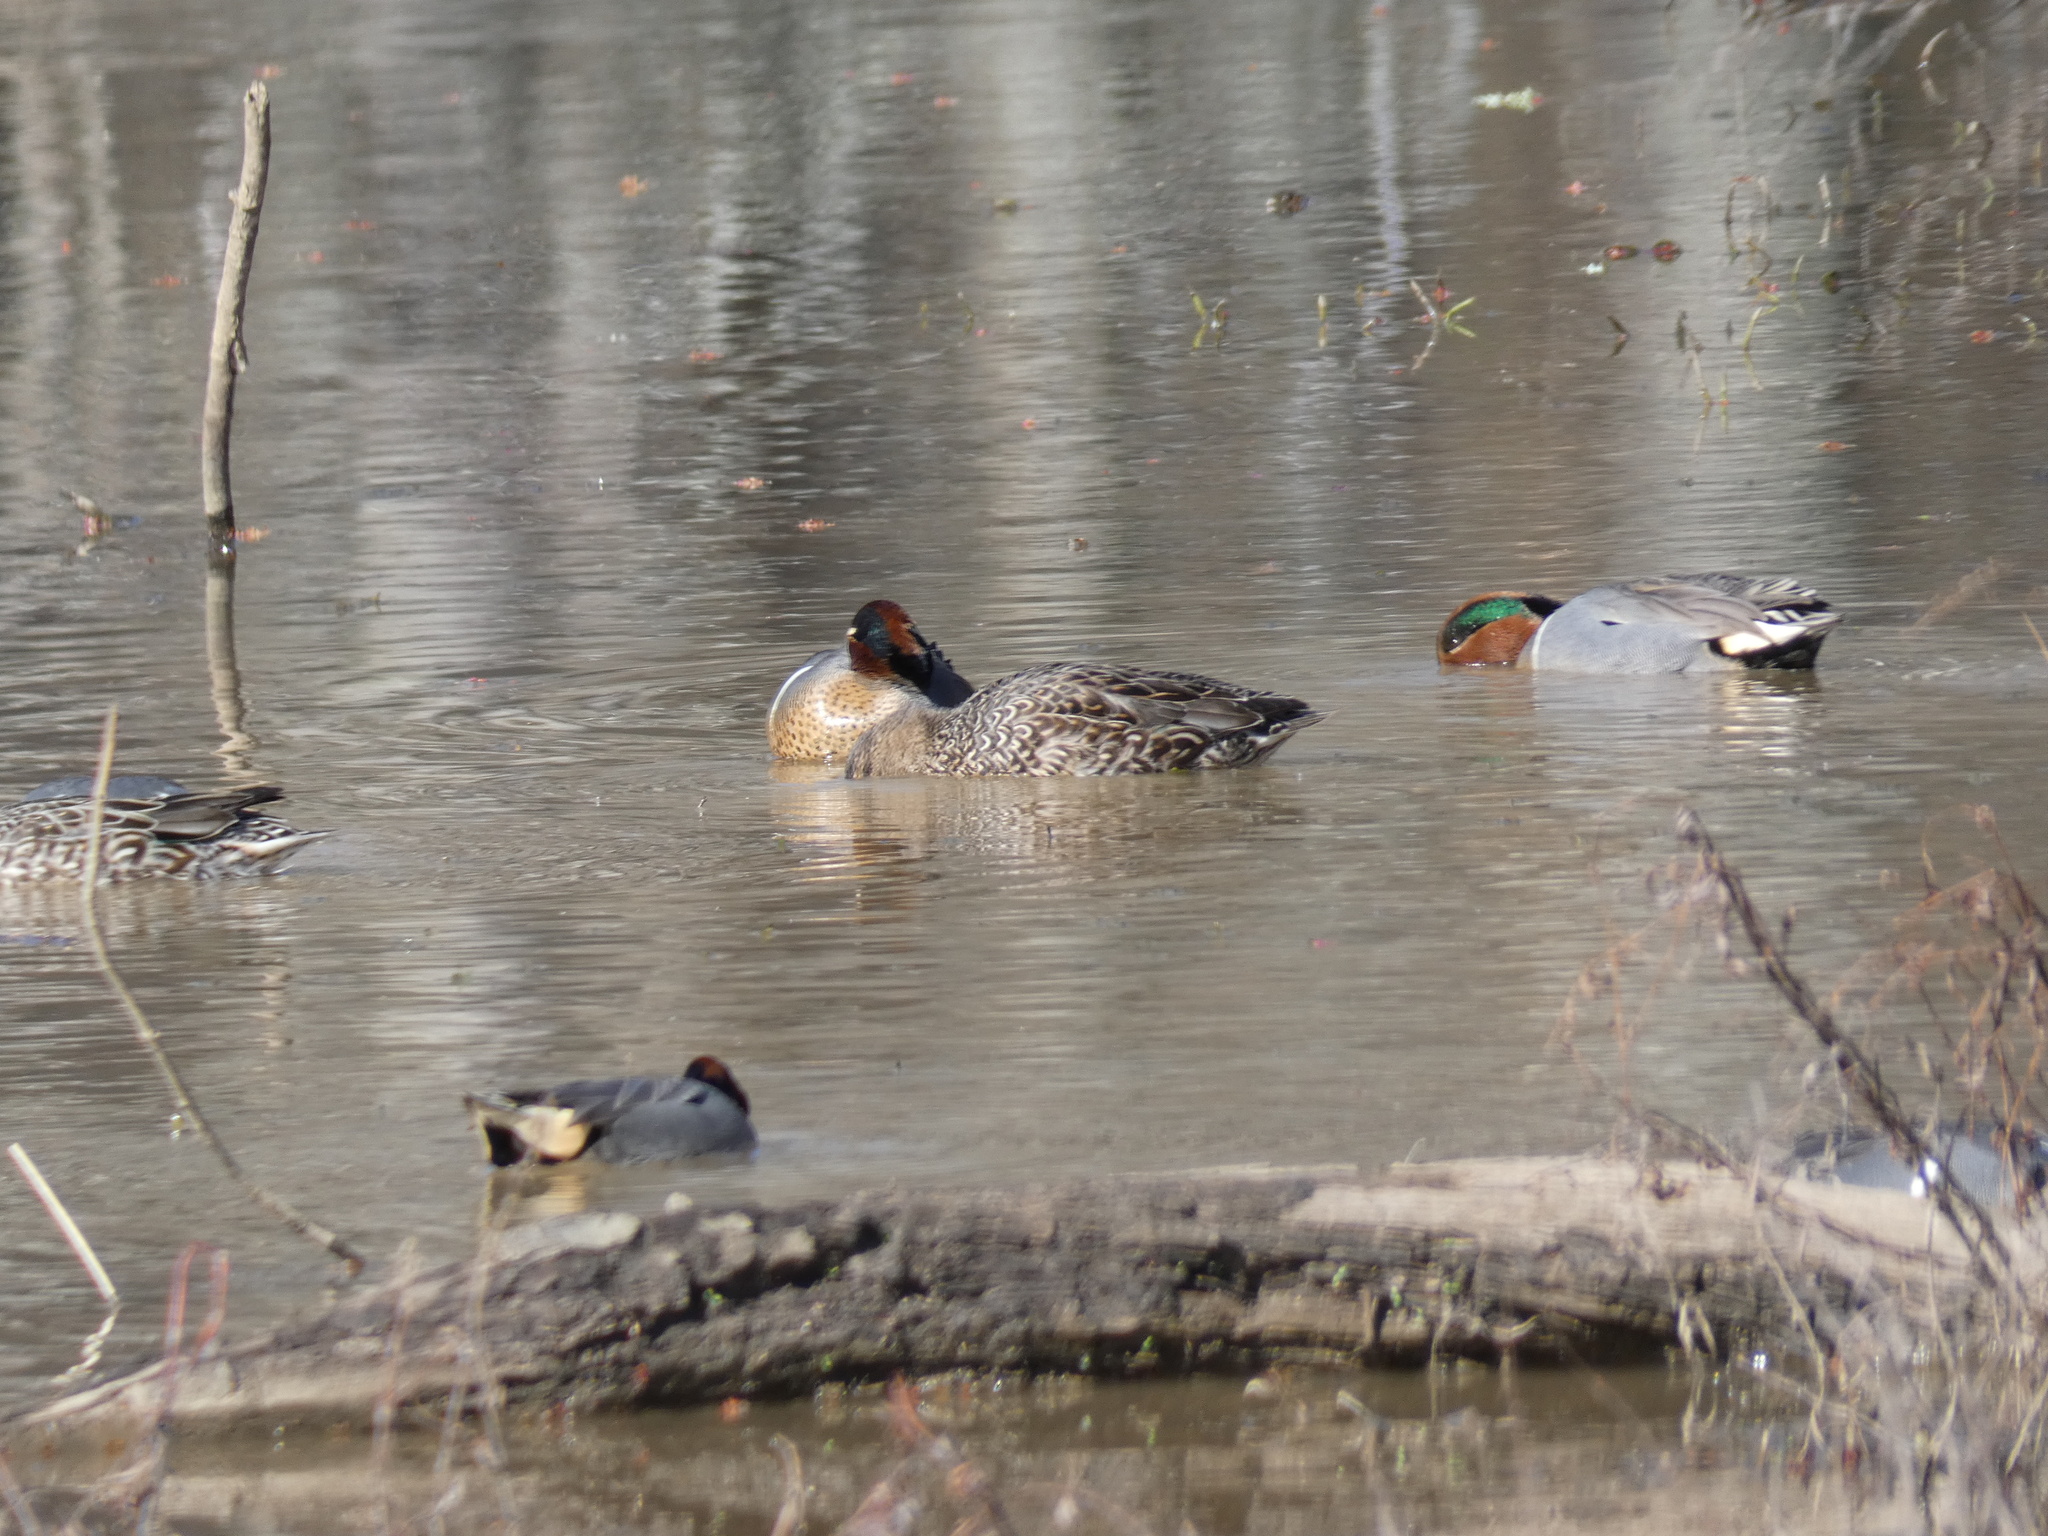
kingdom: Animalia
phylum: Chordata
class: Aves
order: Anseriformes
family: Anatidae
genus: Anas
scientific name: Anas crecca
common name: Eurasian teal
